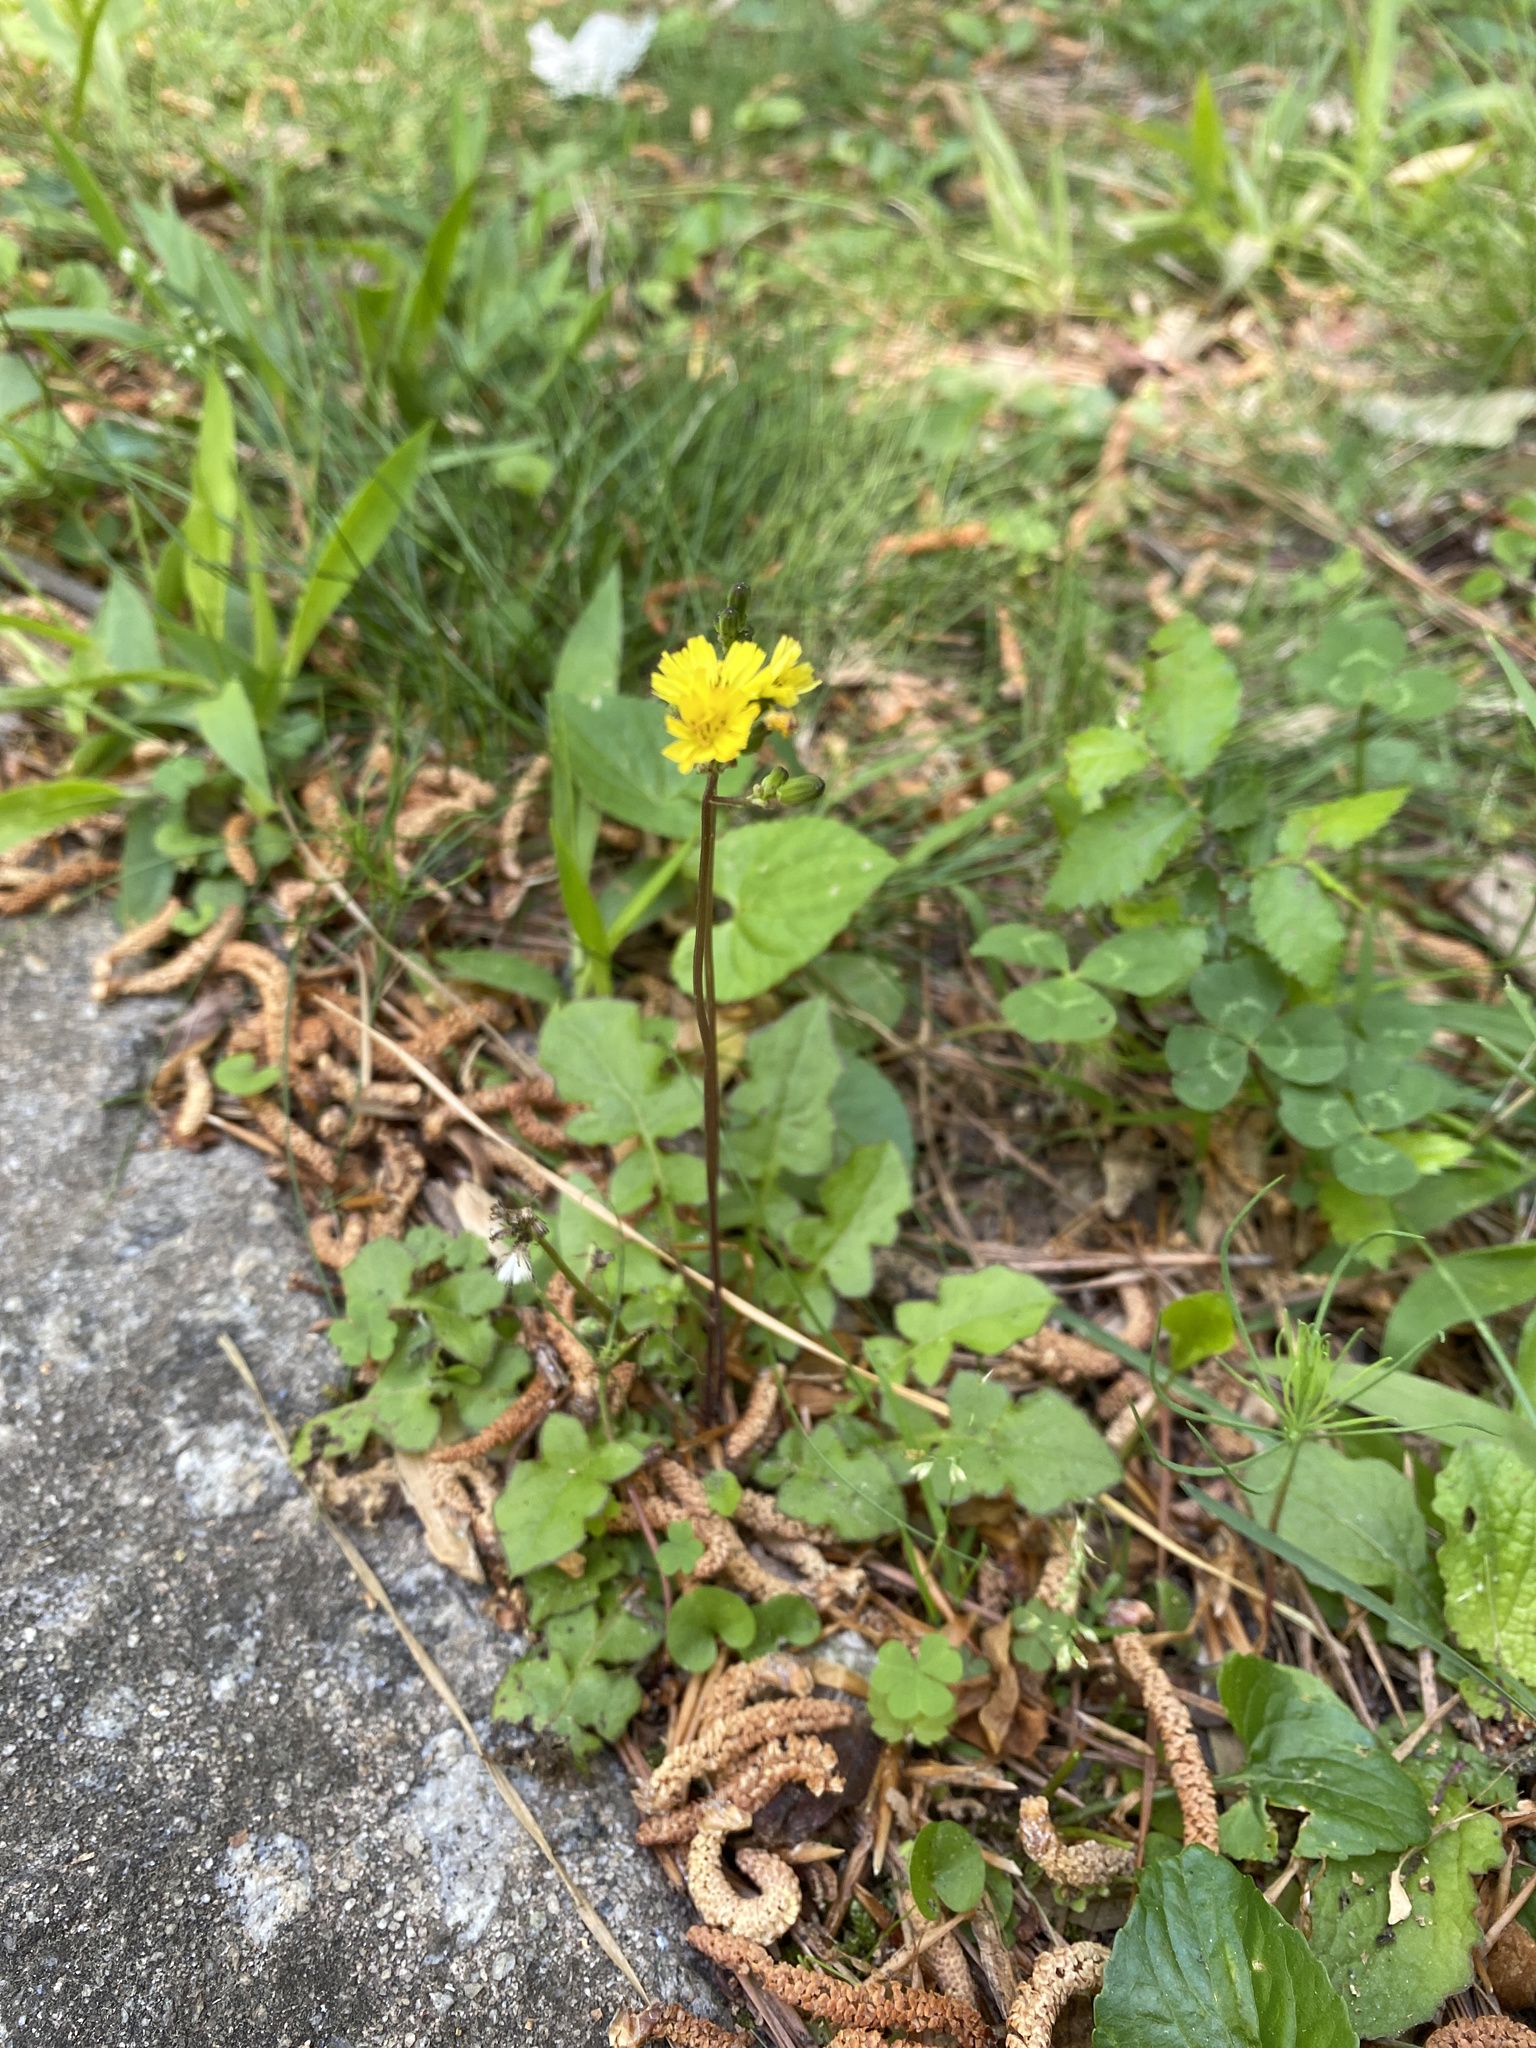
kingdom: Plantae
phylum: Tracheophyta
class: Magnoliopsida
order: Asterales
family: Asteraceae
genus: Youngia
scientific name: Youngia japonica
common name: Oriental false hawksbeard
